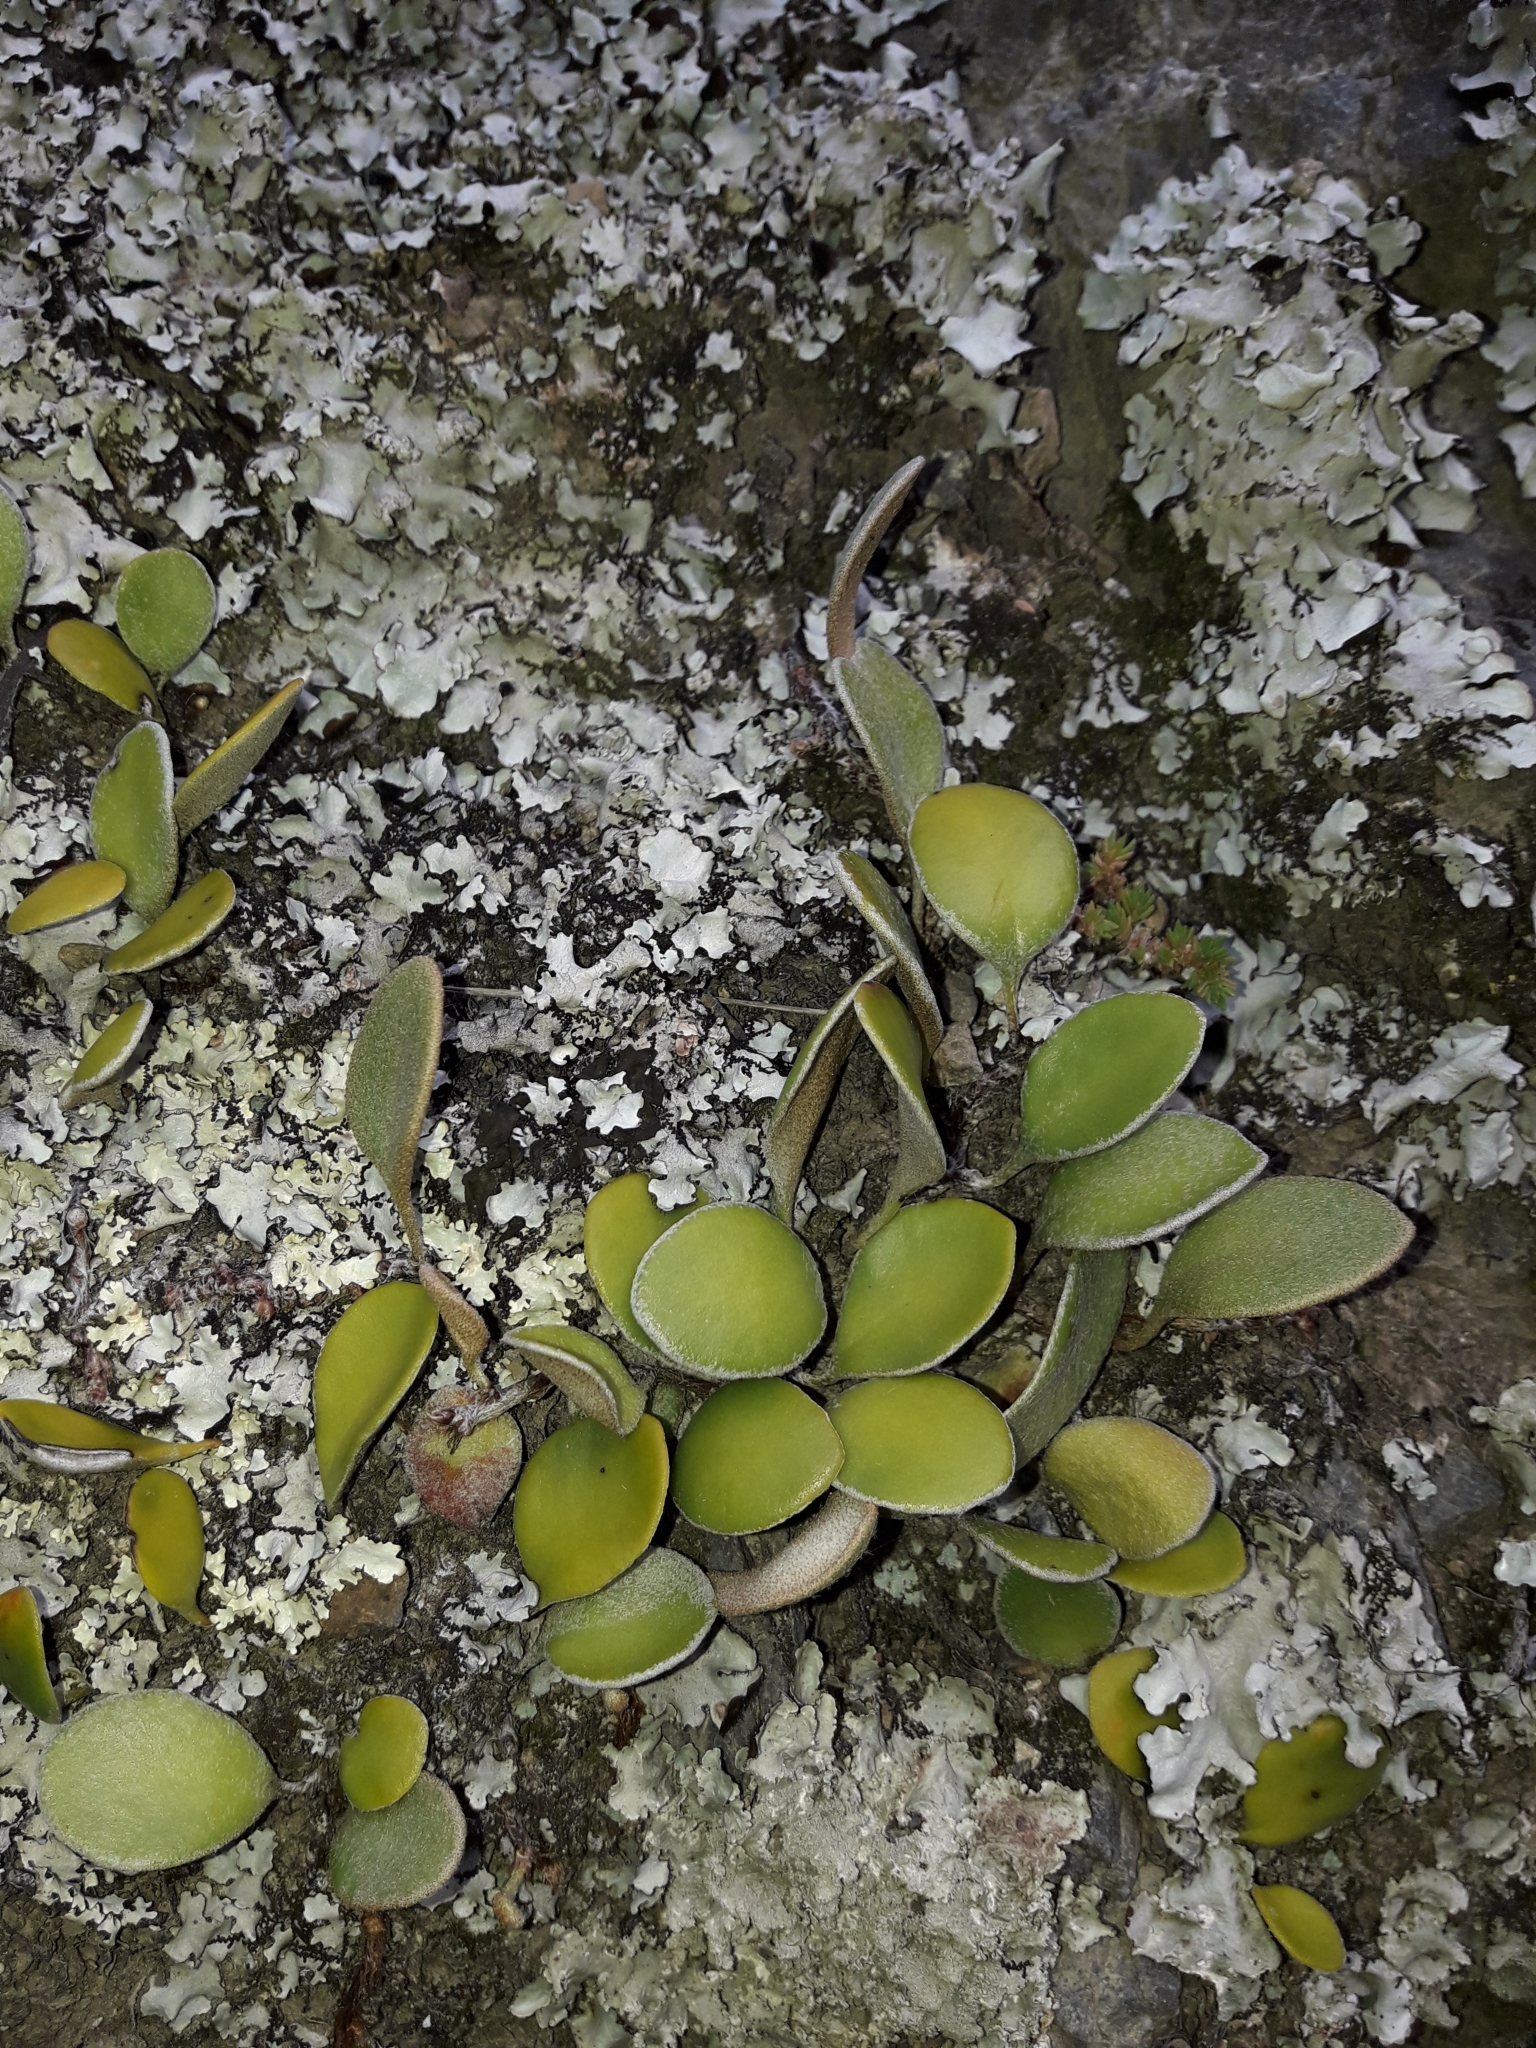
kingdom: Plantae
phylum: Tracheophyta
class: Polypodiopsida
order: Polypodiales
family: Polypodiaceae
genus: Pyrrosia
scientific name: Pyrrosia eleagnifolia
